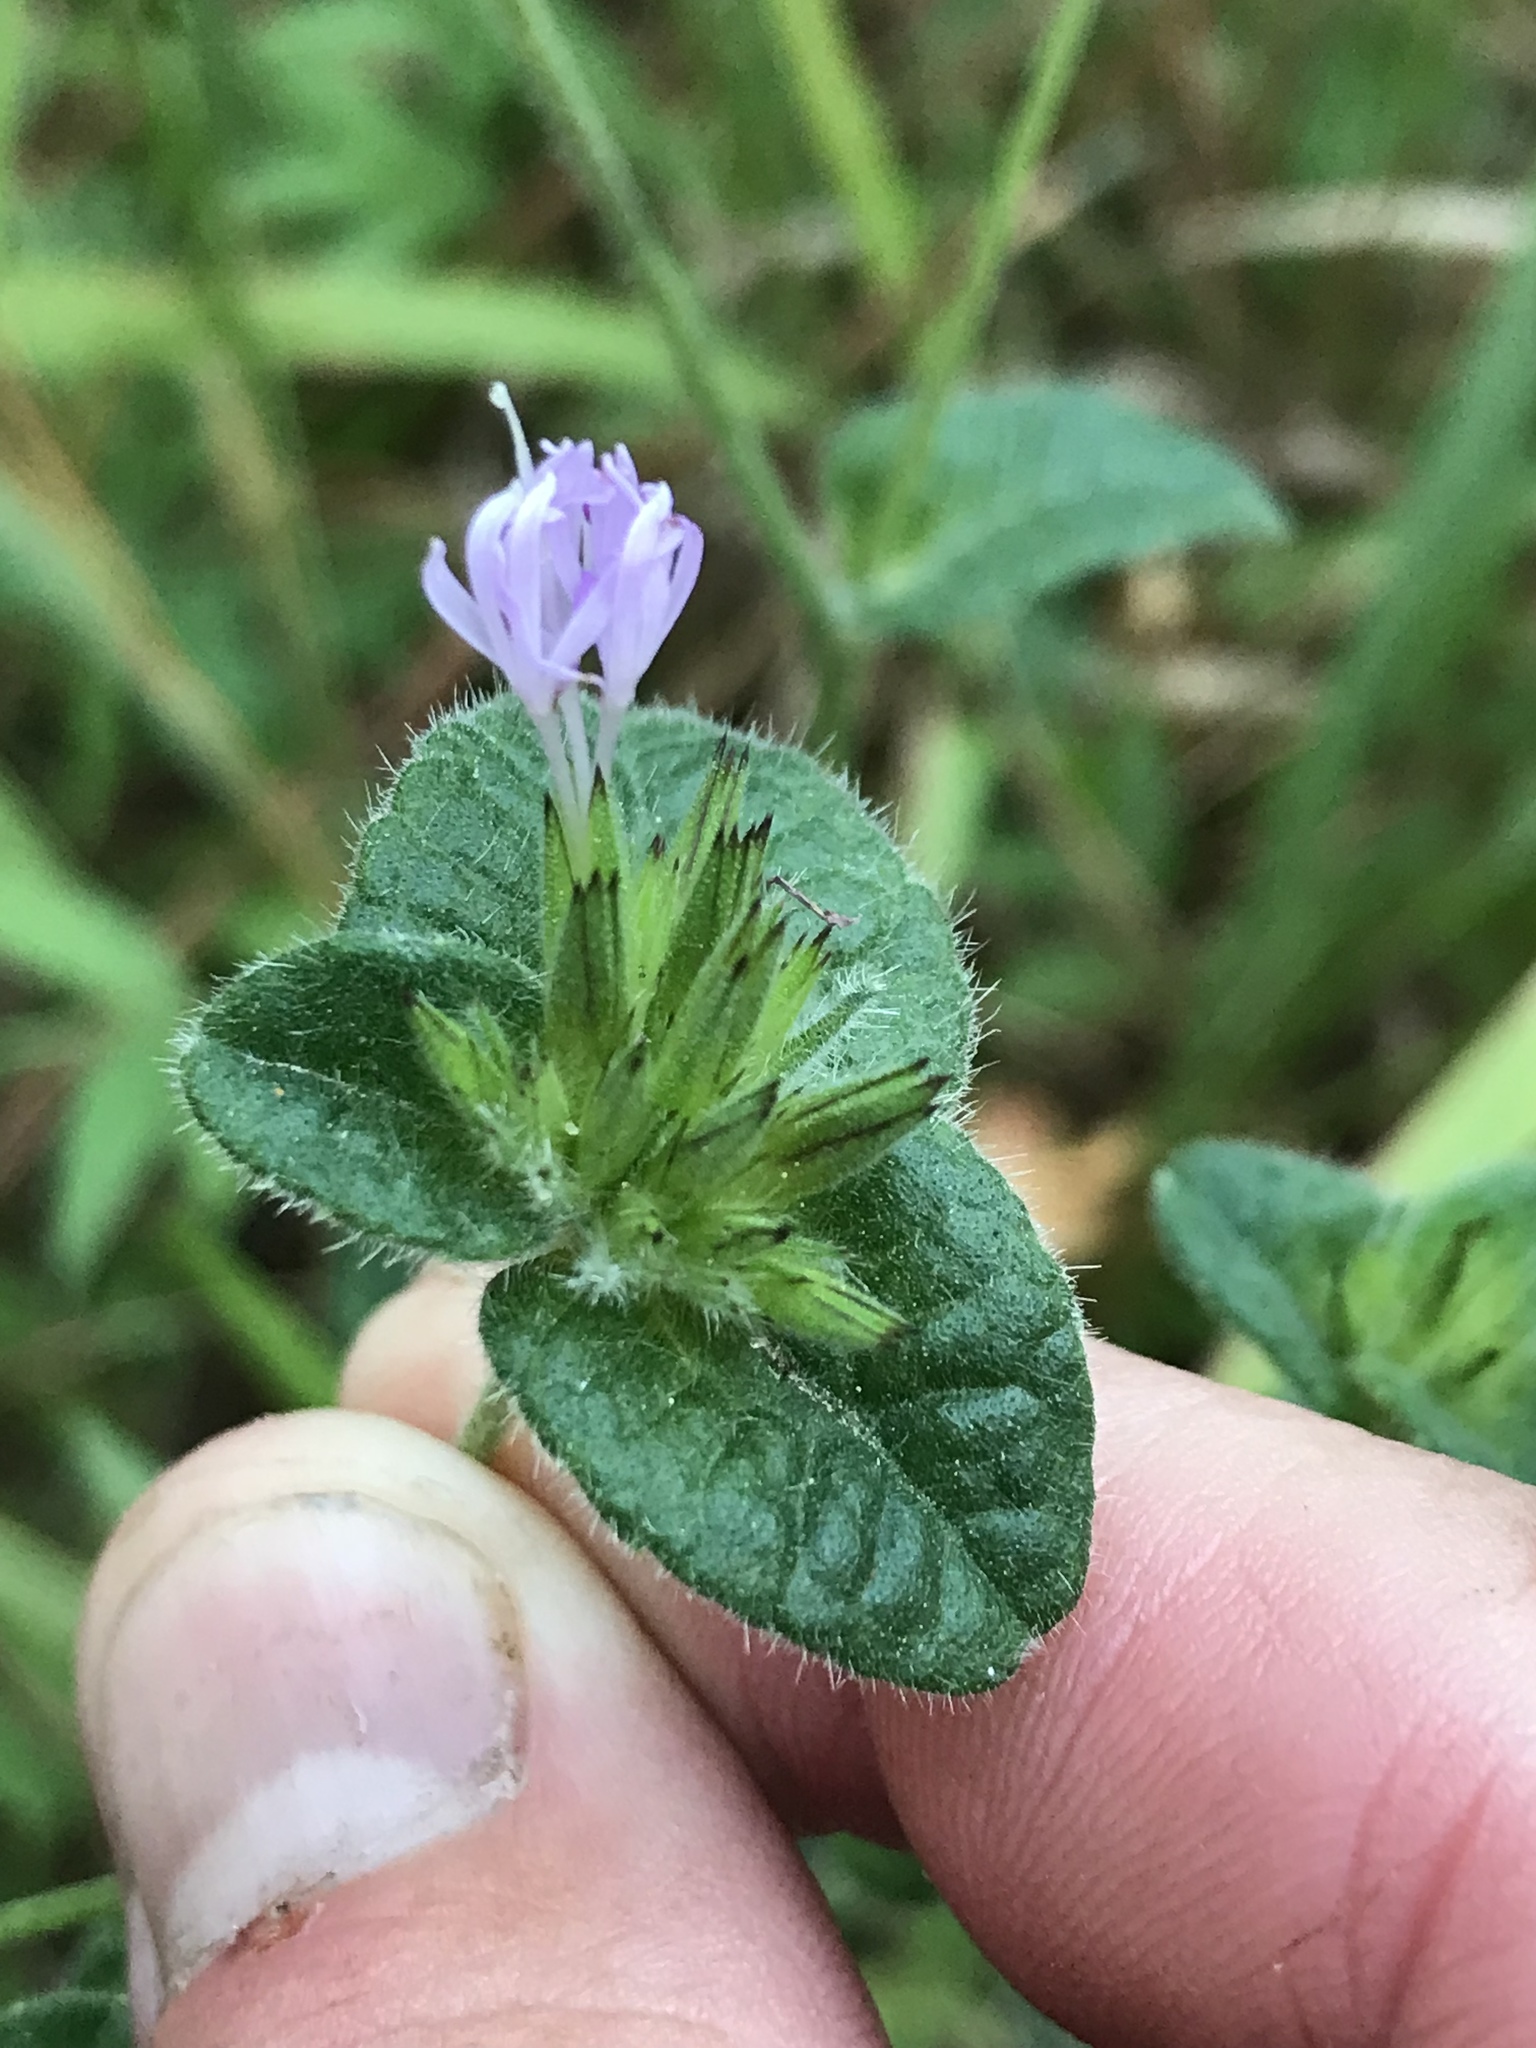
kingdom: Plantae
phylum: Tracheophyta
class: Magnoliopsida
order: Asterales
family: Asteraceae
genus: Elephantopus
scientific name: Elephantopus tomentosus
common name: Tobacco-weed
